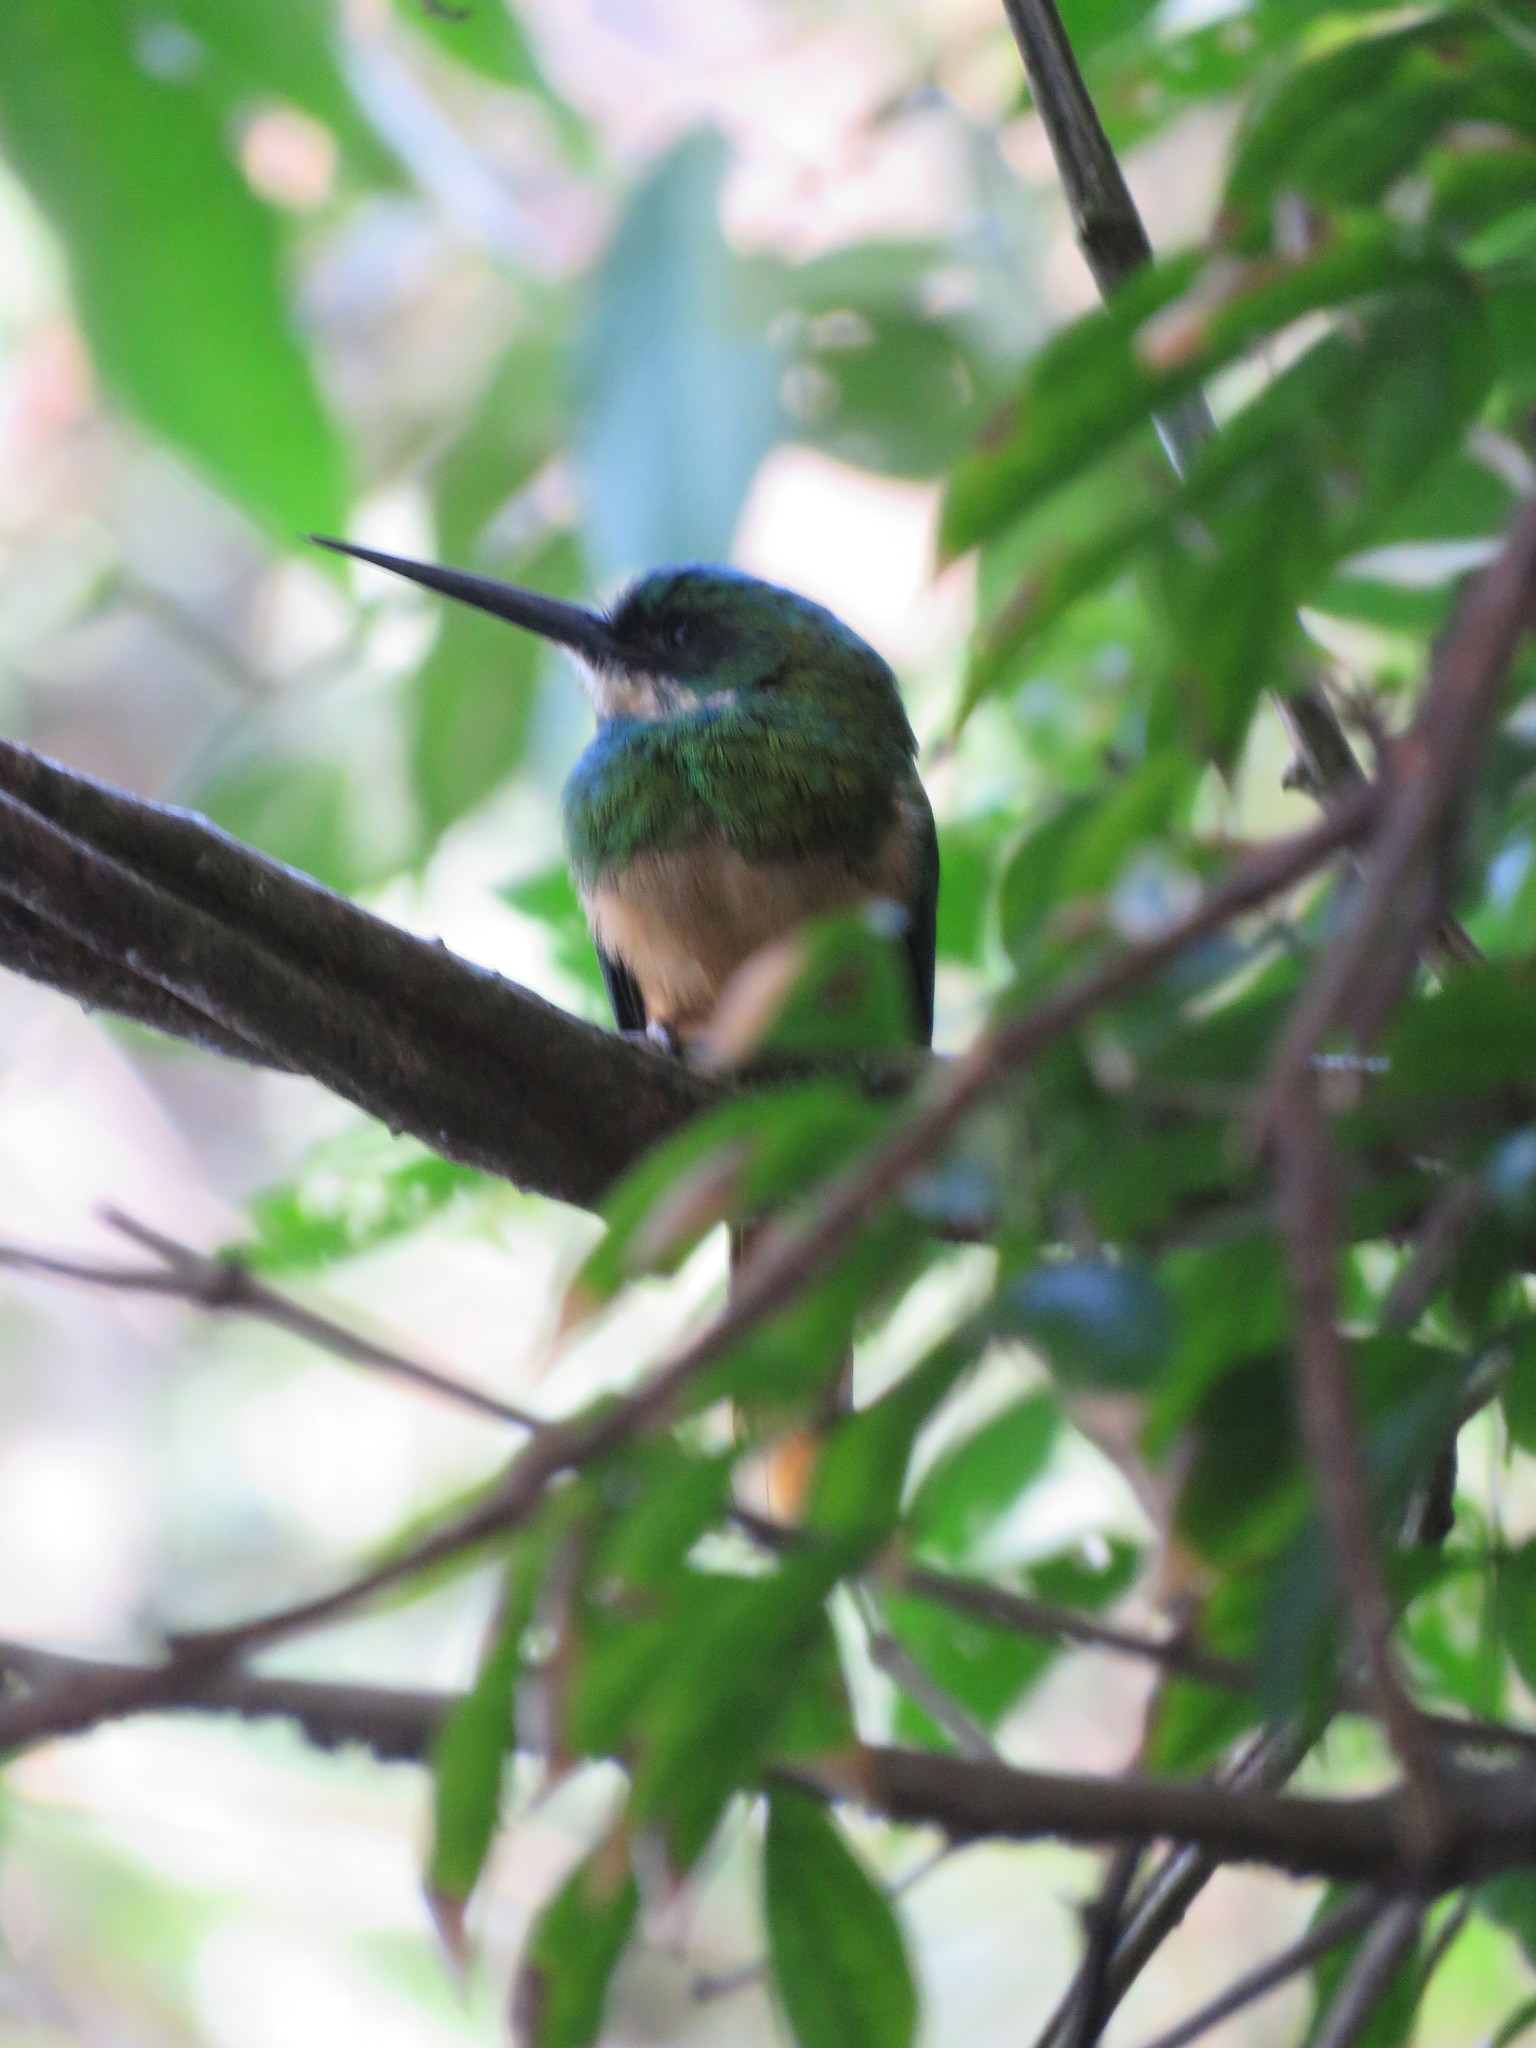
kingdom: Animalia
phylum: Chordata
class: Aves
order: Piciformes
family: Galbulidae
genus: Galbula
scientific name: Galbula ruficauda
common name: Rufous-tailed jacamar
